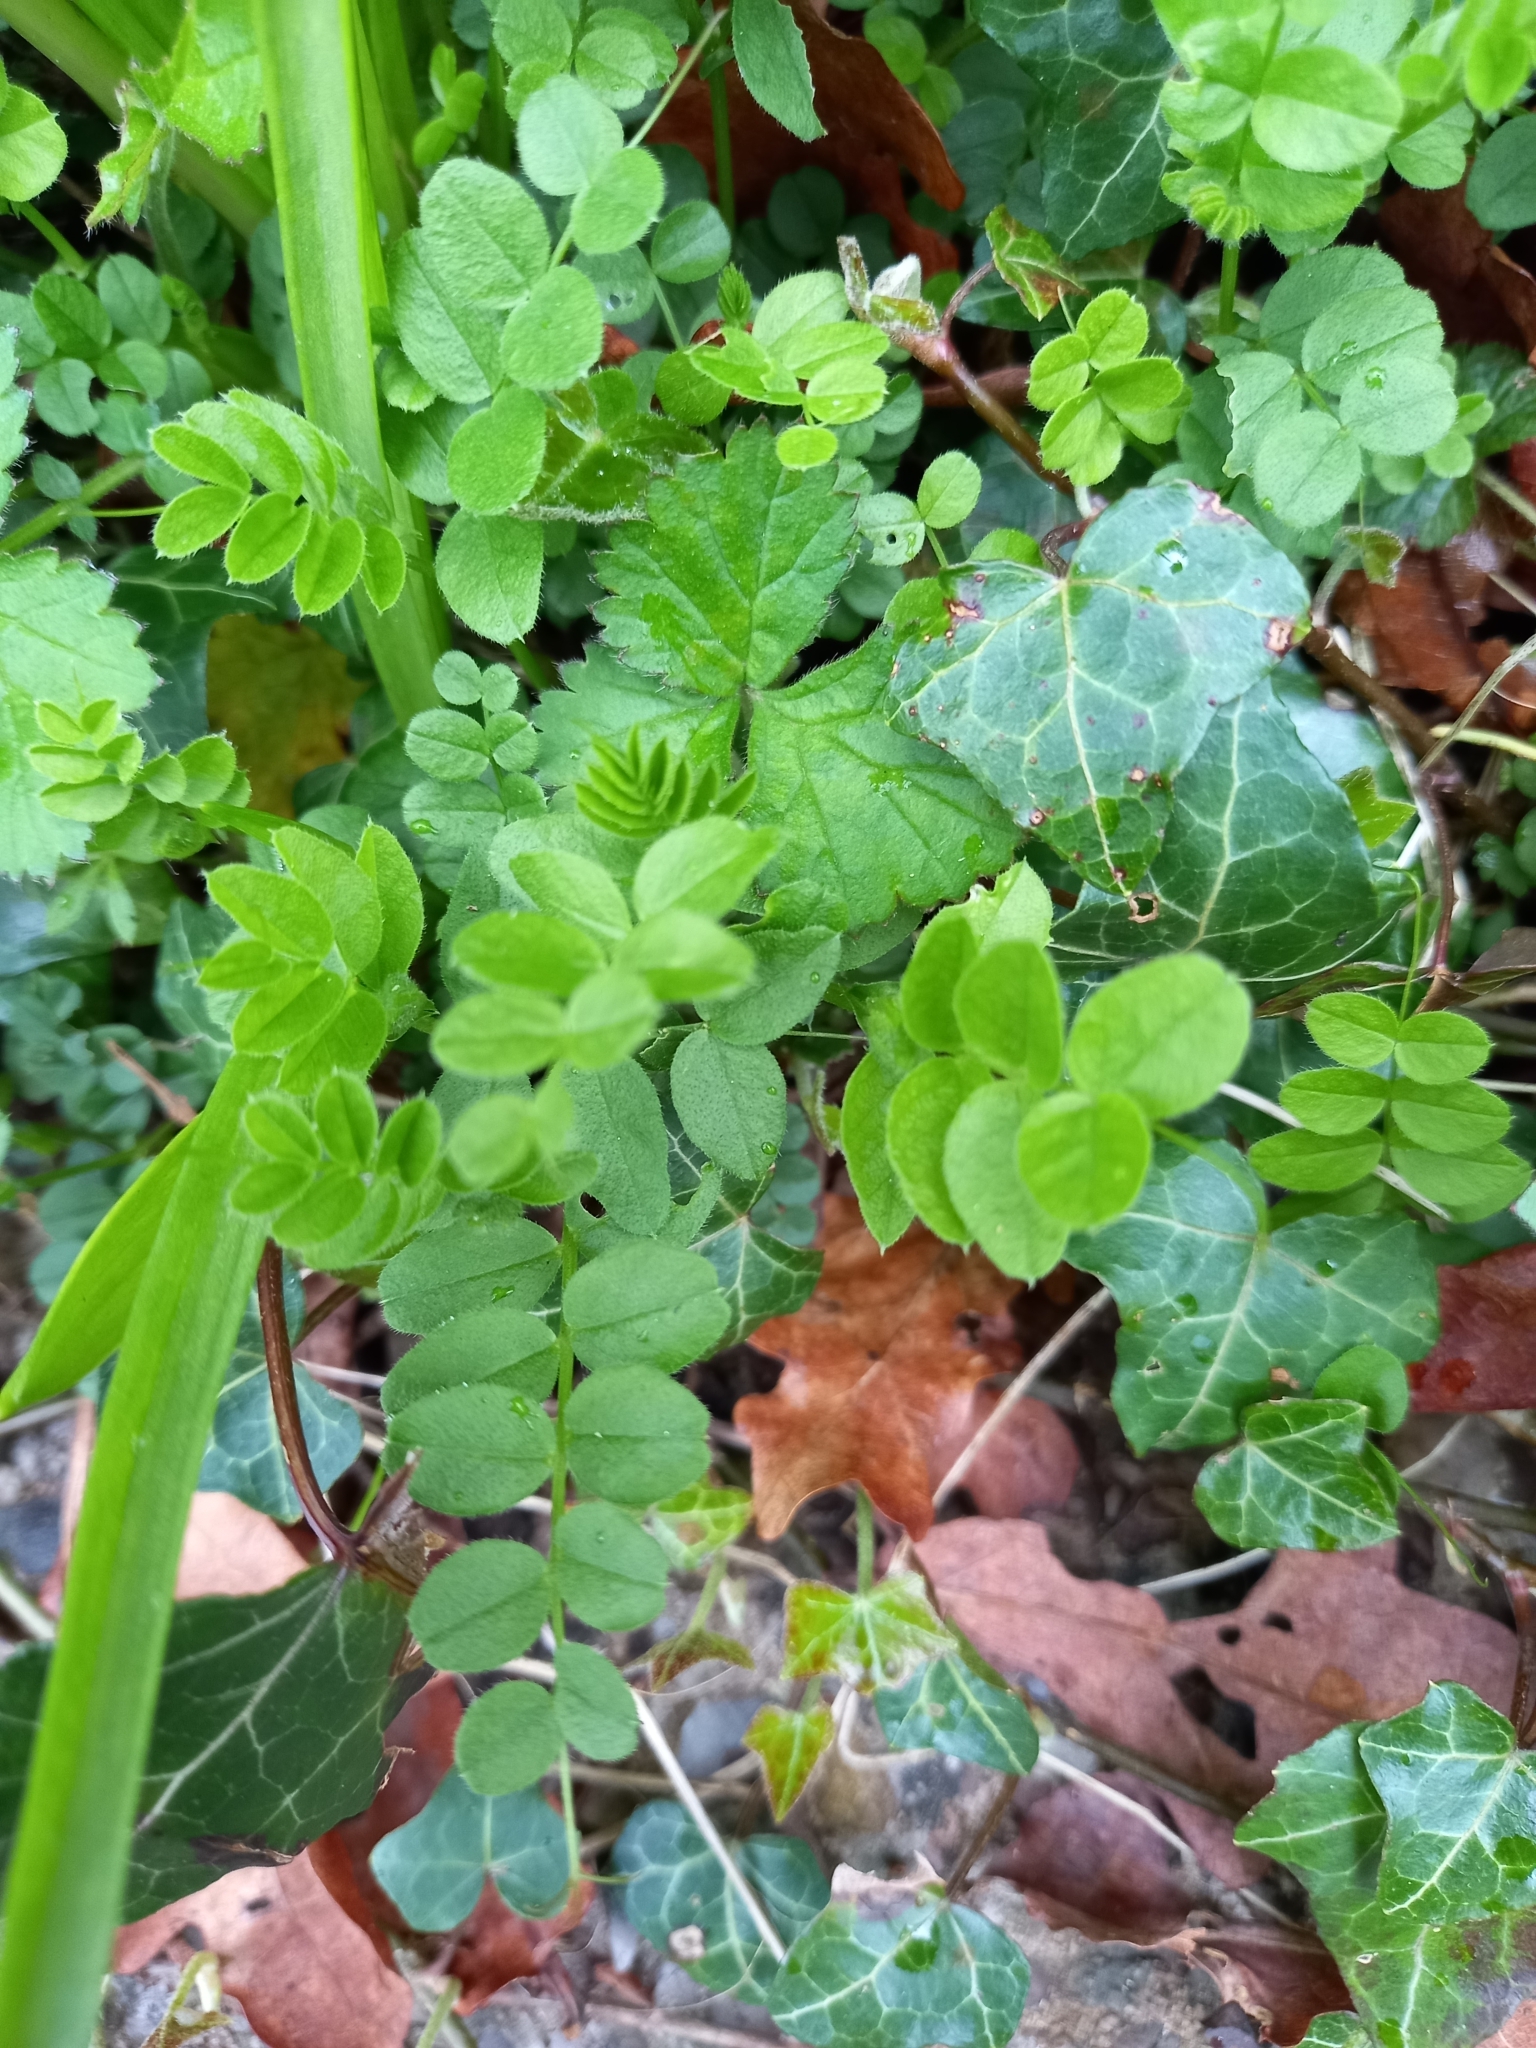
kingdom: Plantae
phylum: Tracheophyta
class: Magnoliopsida
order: Fabales
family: Fabaceae
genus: Vicia
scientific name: Vicia sepium
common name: Bush vetch
